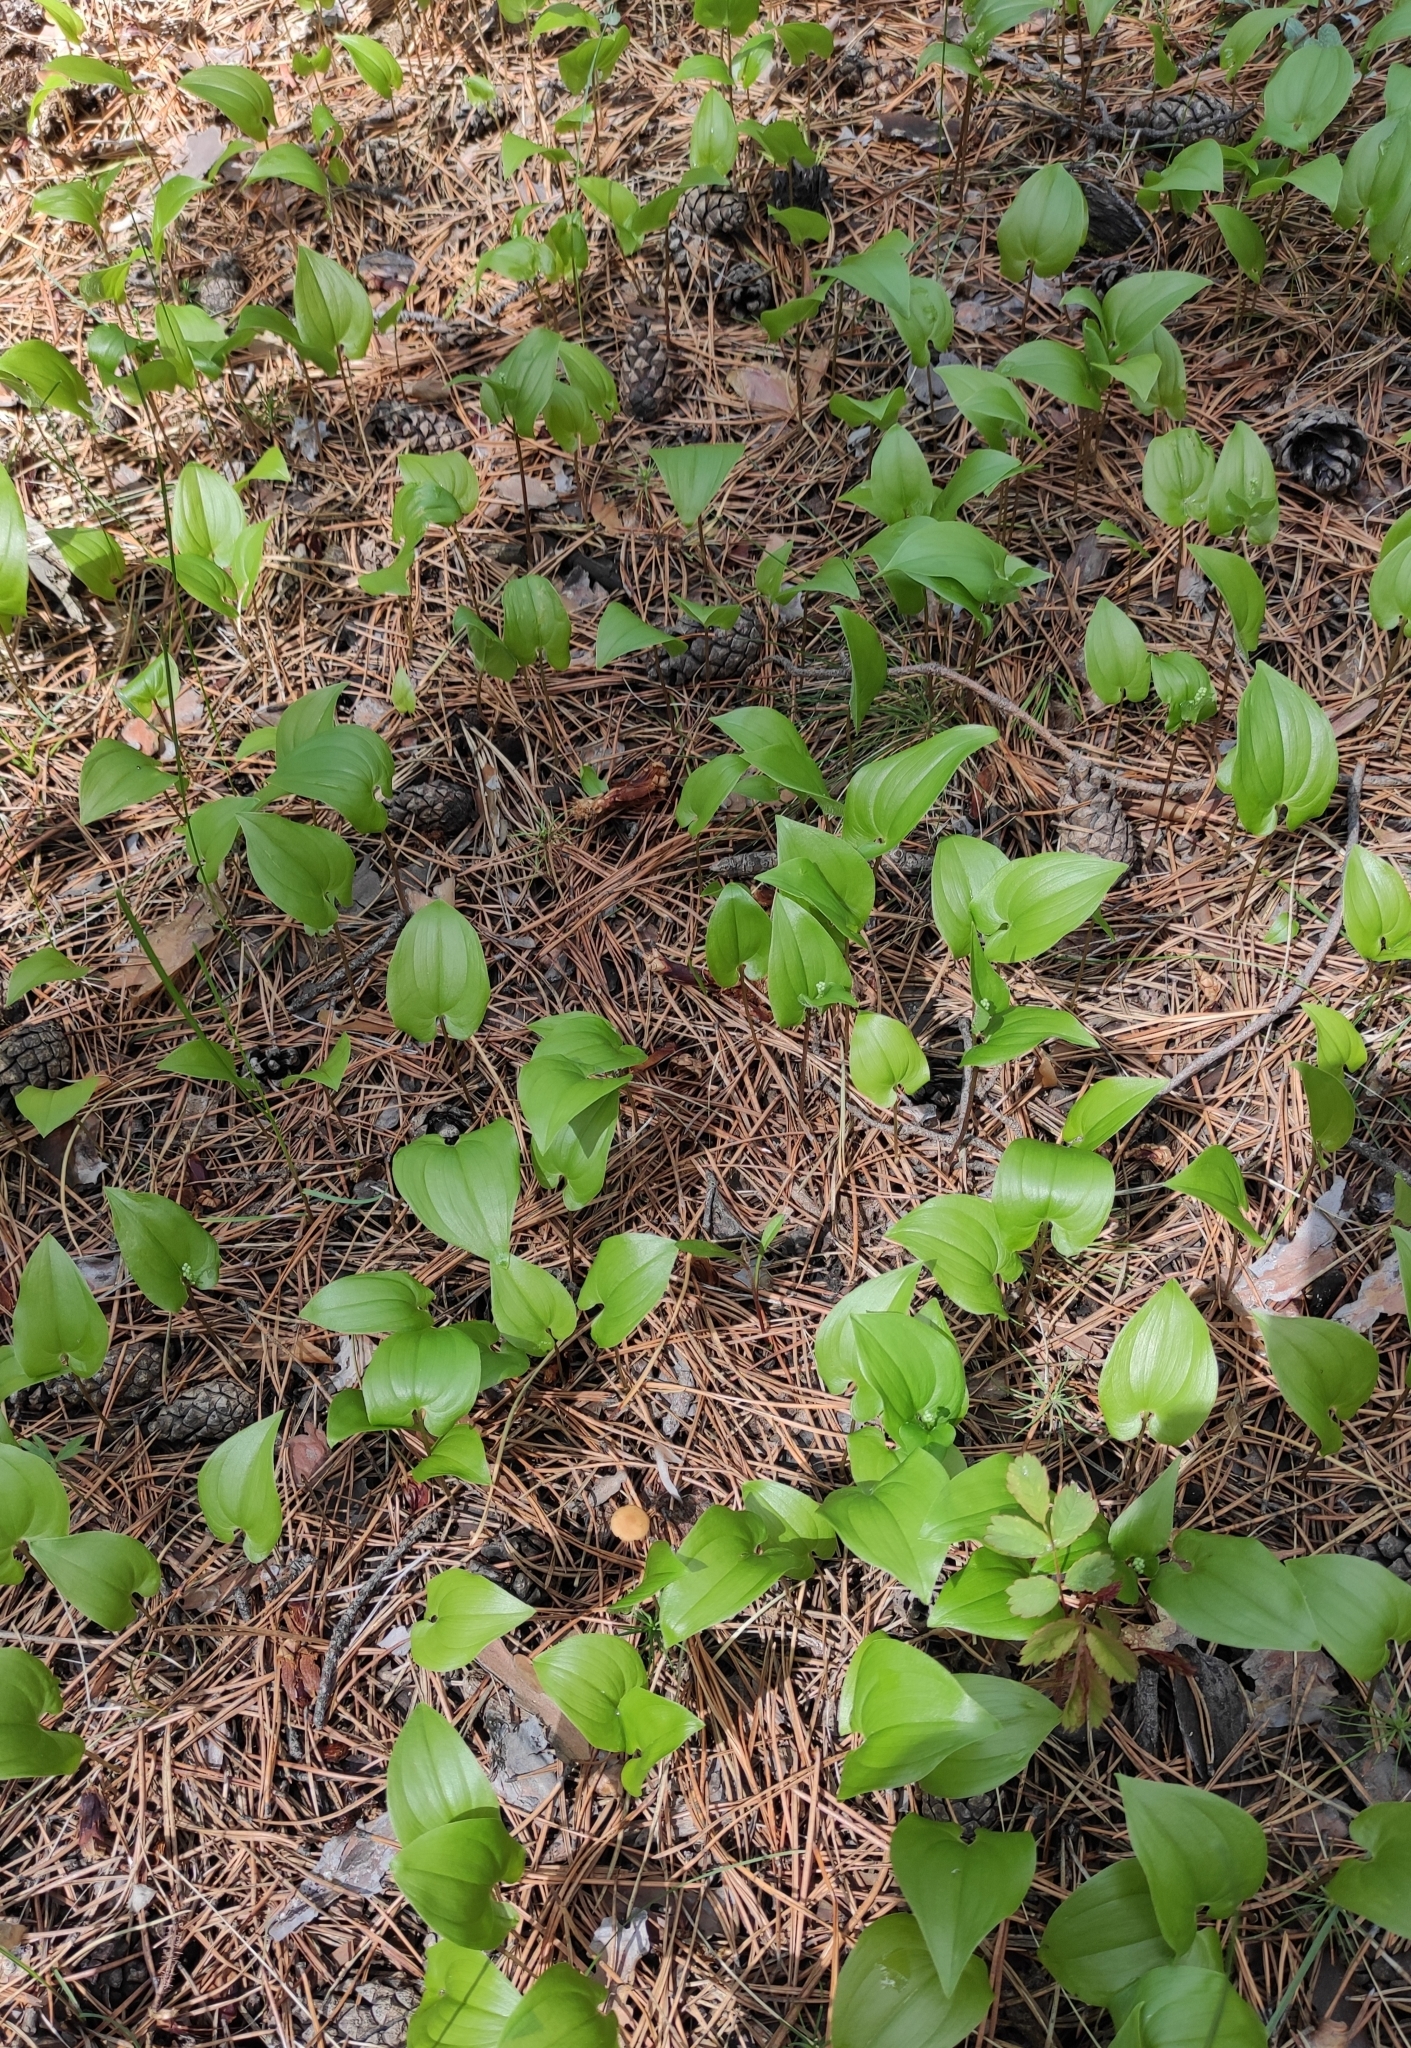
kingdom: Plantae
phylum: Tracheophyta
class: Liliopsida
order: Asparagales
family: Asparagaceae
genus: Maianthemum
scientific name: Maianthemum bifolium
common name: May lily
